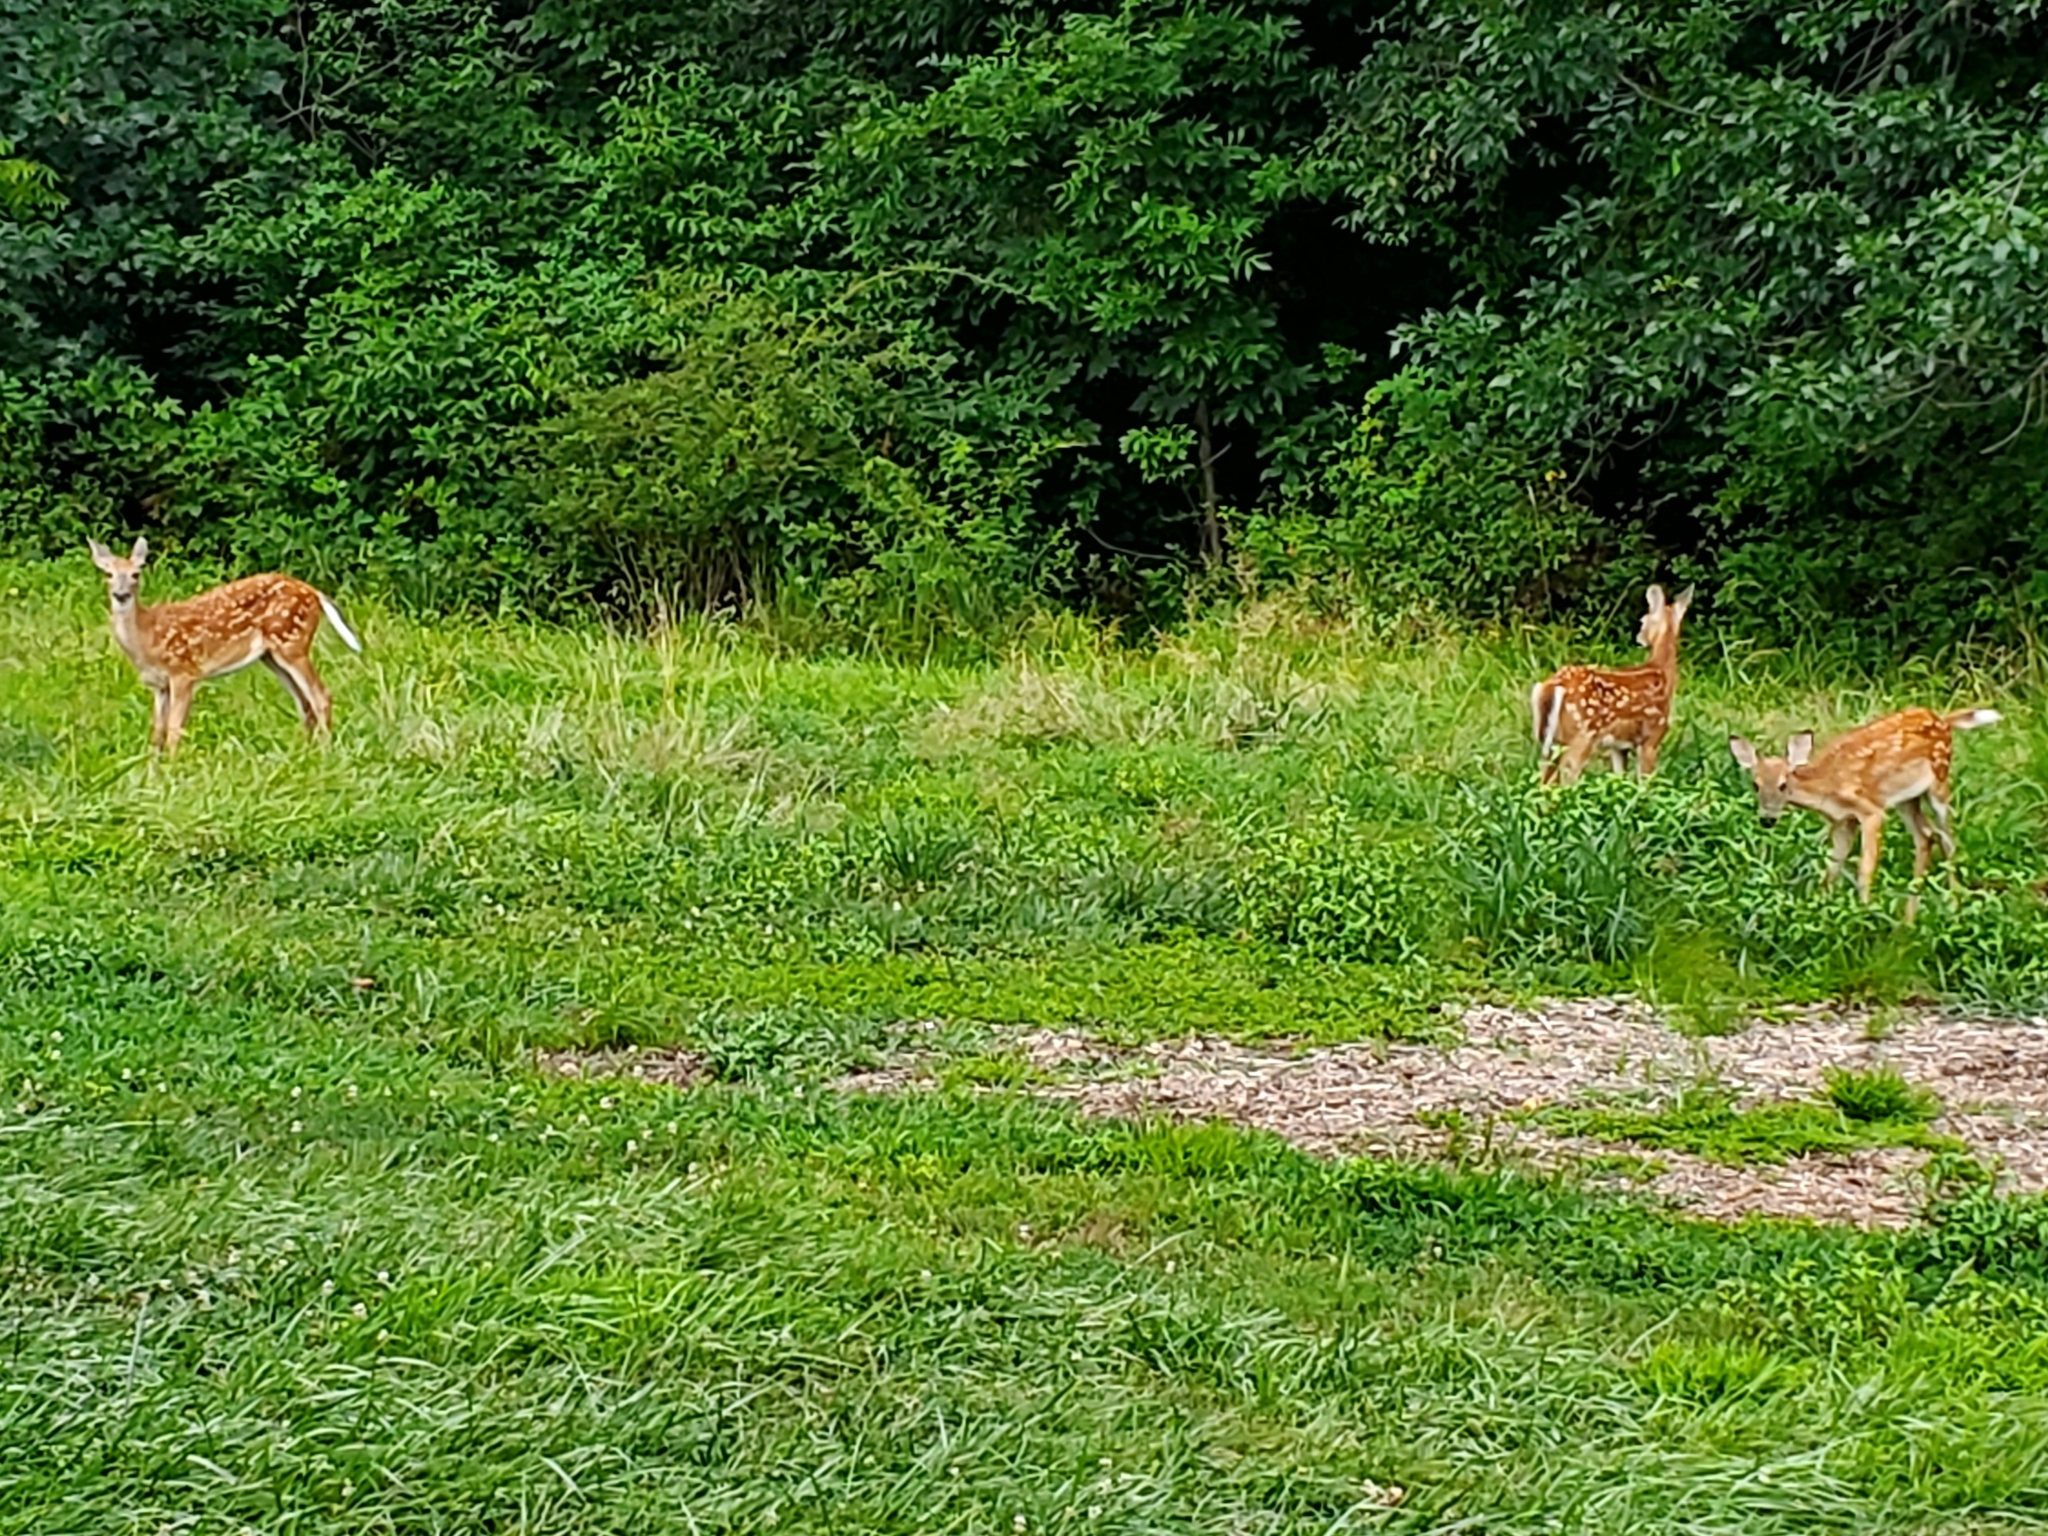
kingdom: Animalia
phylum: Chordata
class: Mammalia
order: Artiodactyla
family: Cervidae
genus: Odocoileus
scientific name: Odocoileus virginianus
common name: White-tailed deer
